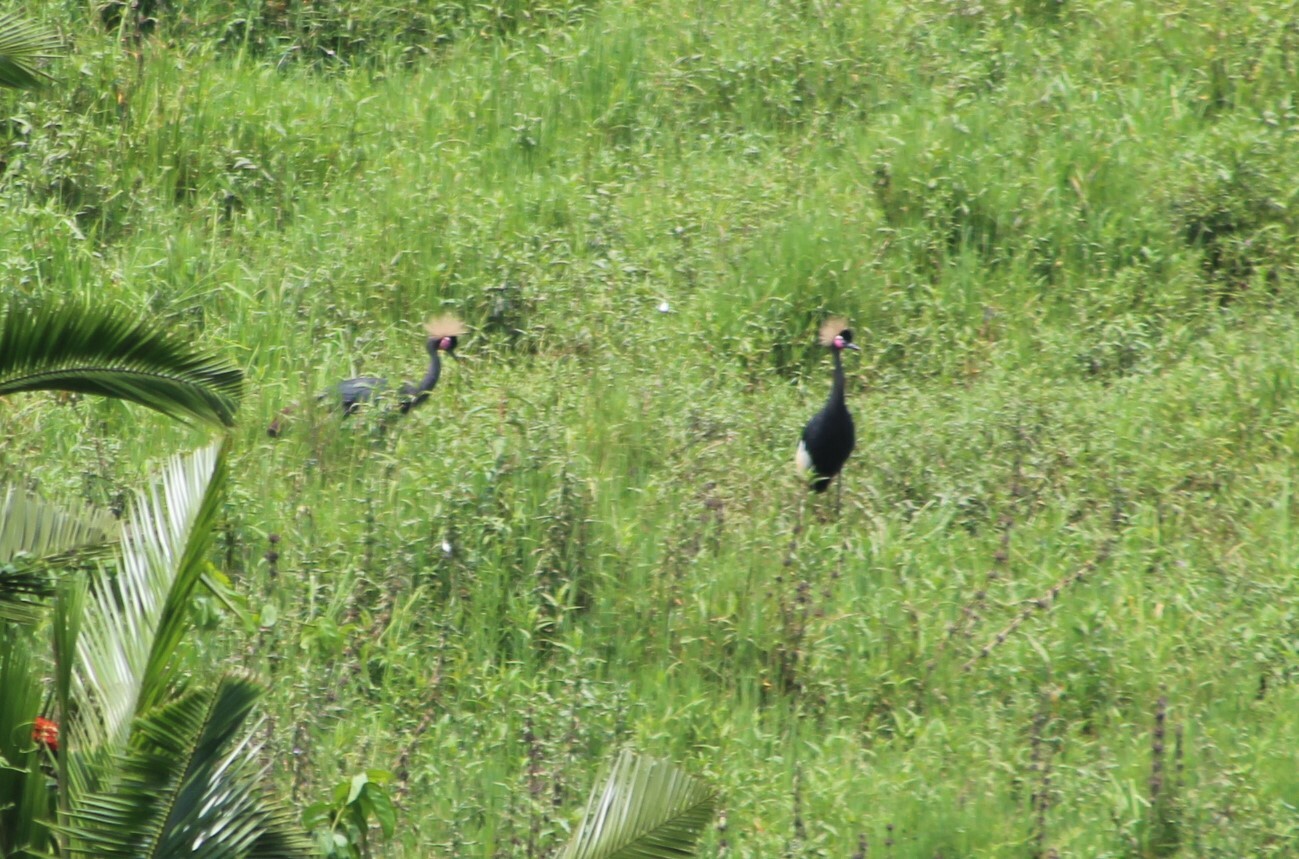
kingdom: Animalia
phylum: Chordata
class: Aves
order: Gruiformes
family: Gruidae
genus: Balearica
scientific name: Balearica pavonina
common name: Black crowned crane
